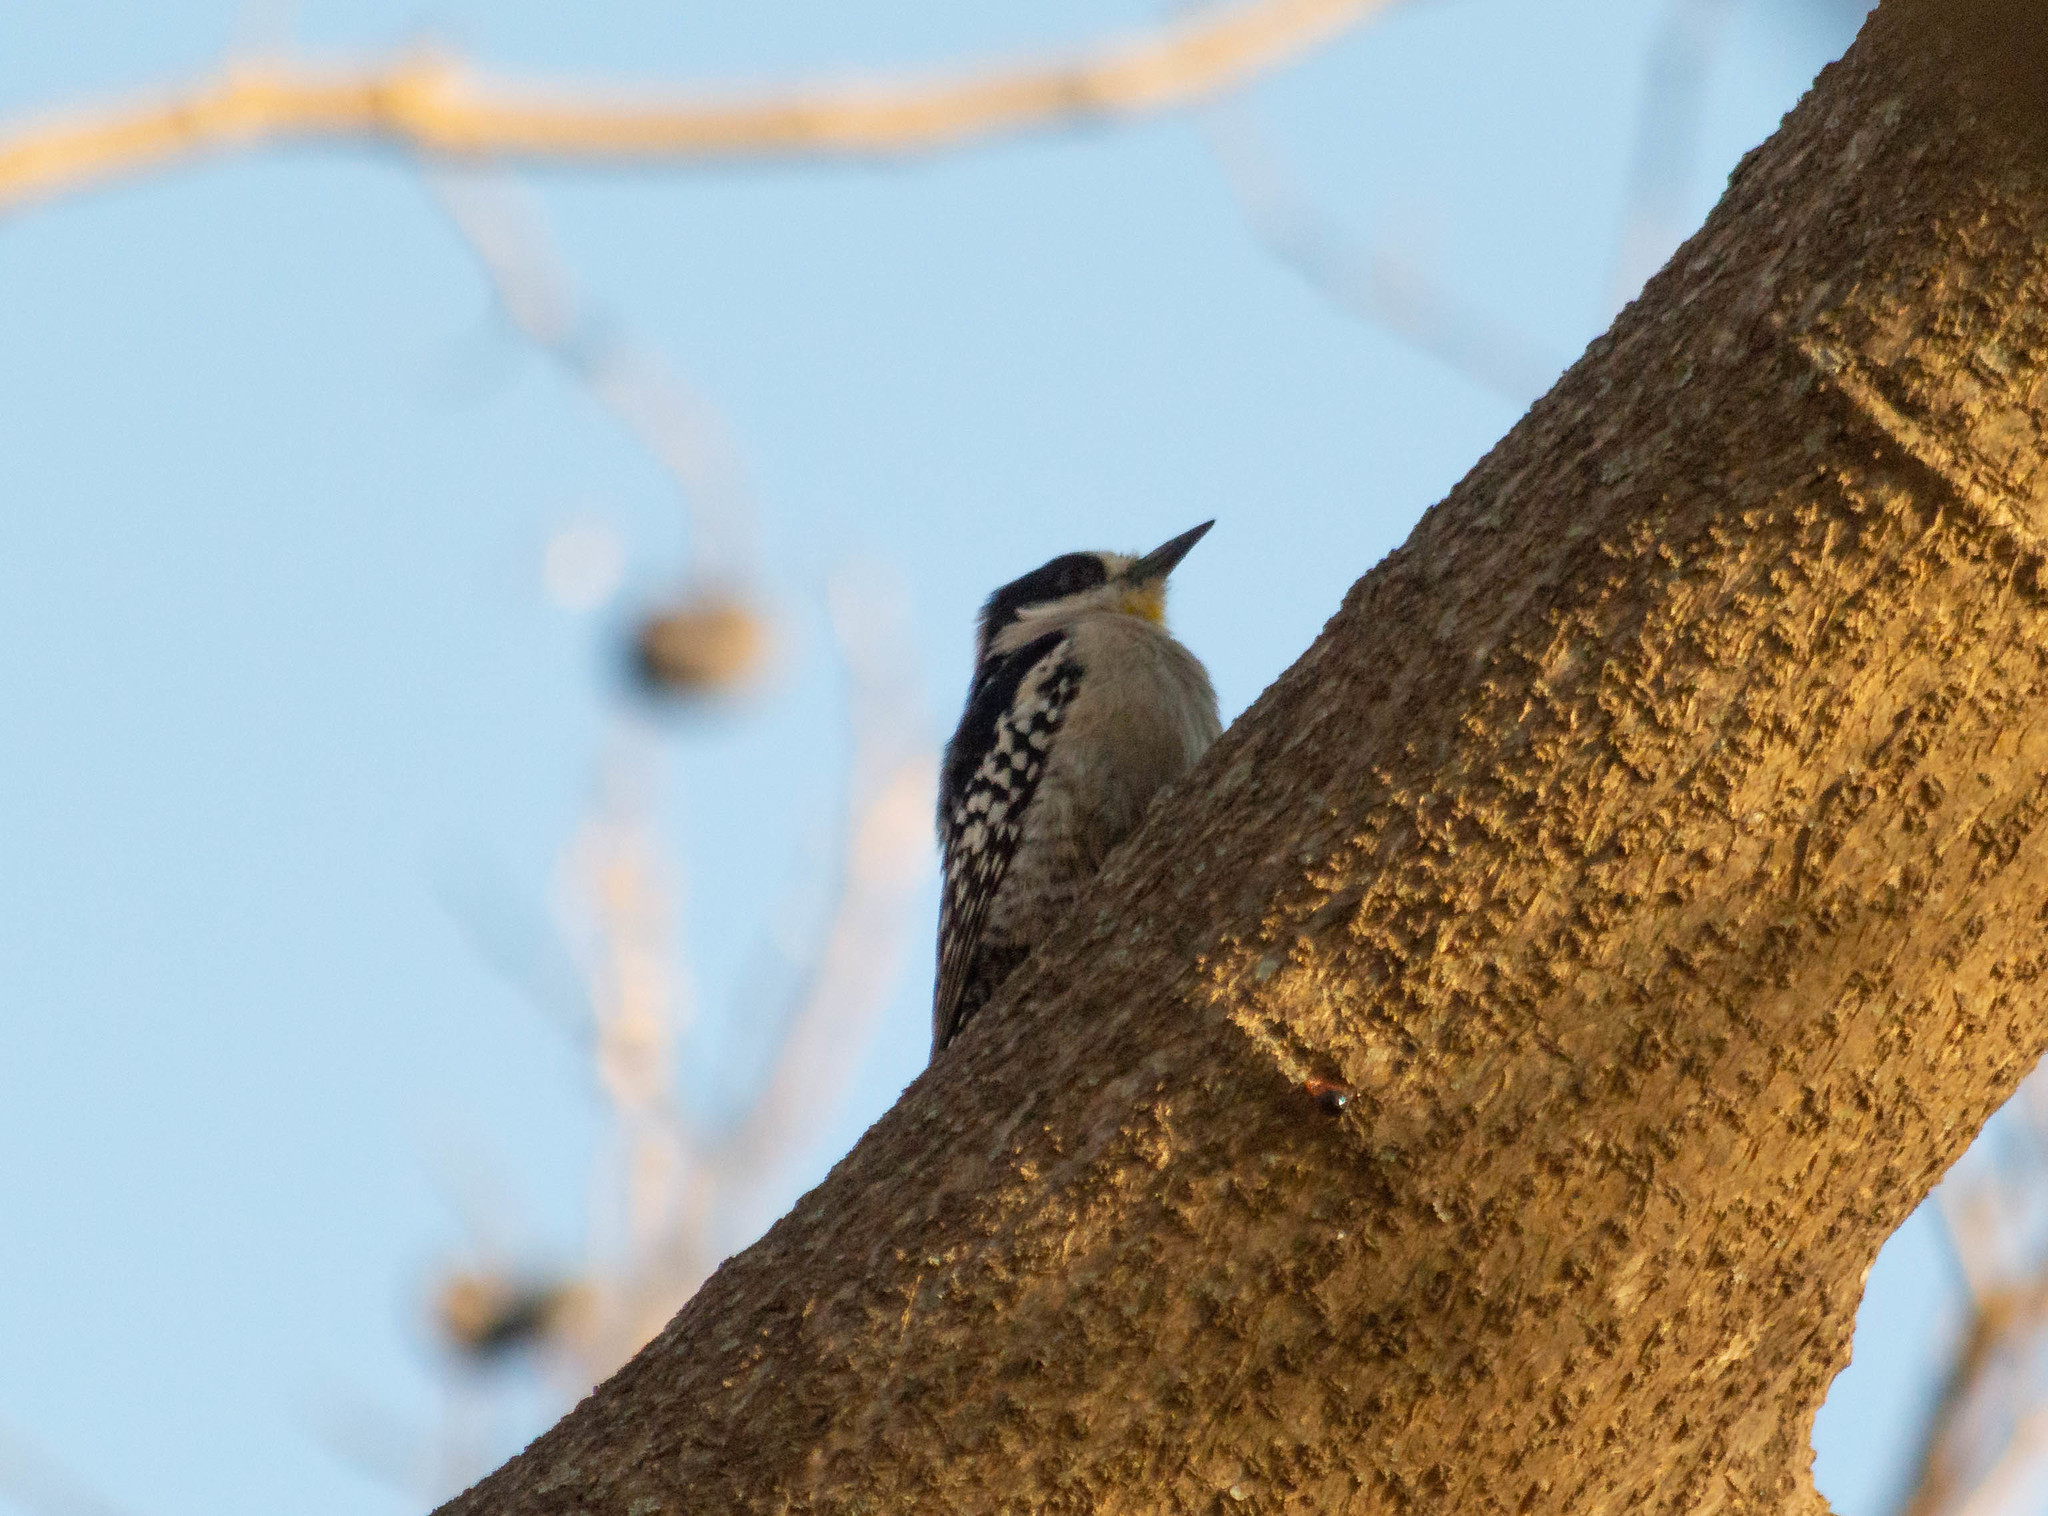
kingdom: Animalia
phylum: Chordata
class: Aves
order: Piciformes
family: Picidae
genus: Melanerpes
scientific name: Melanerpes cactorum
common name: White-fronted woodpecker
